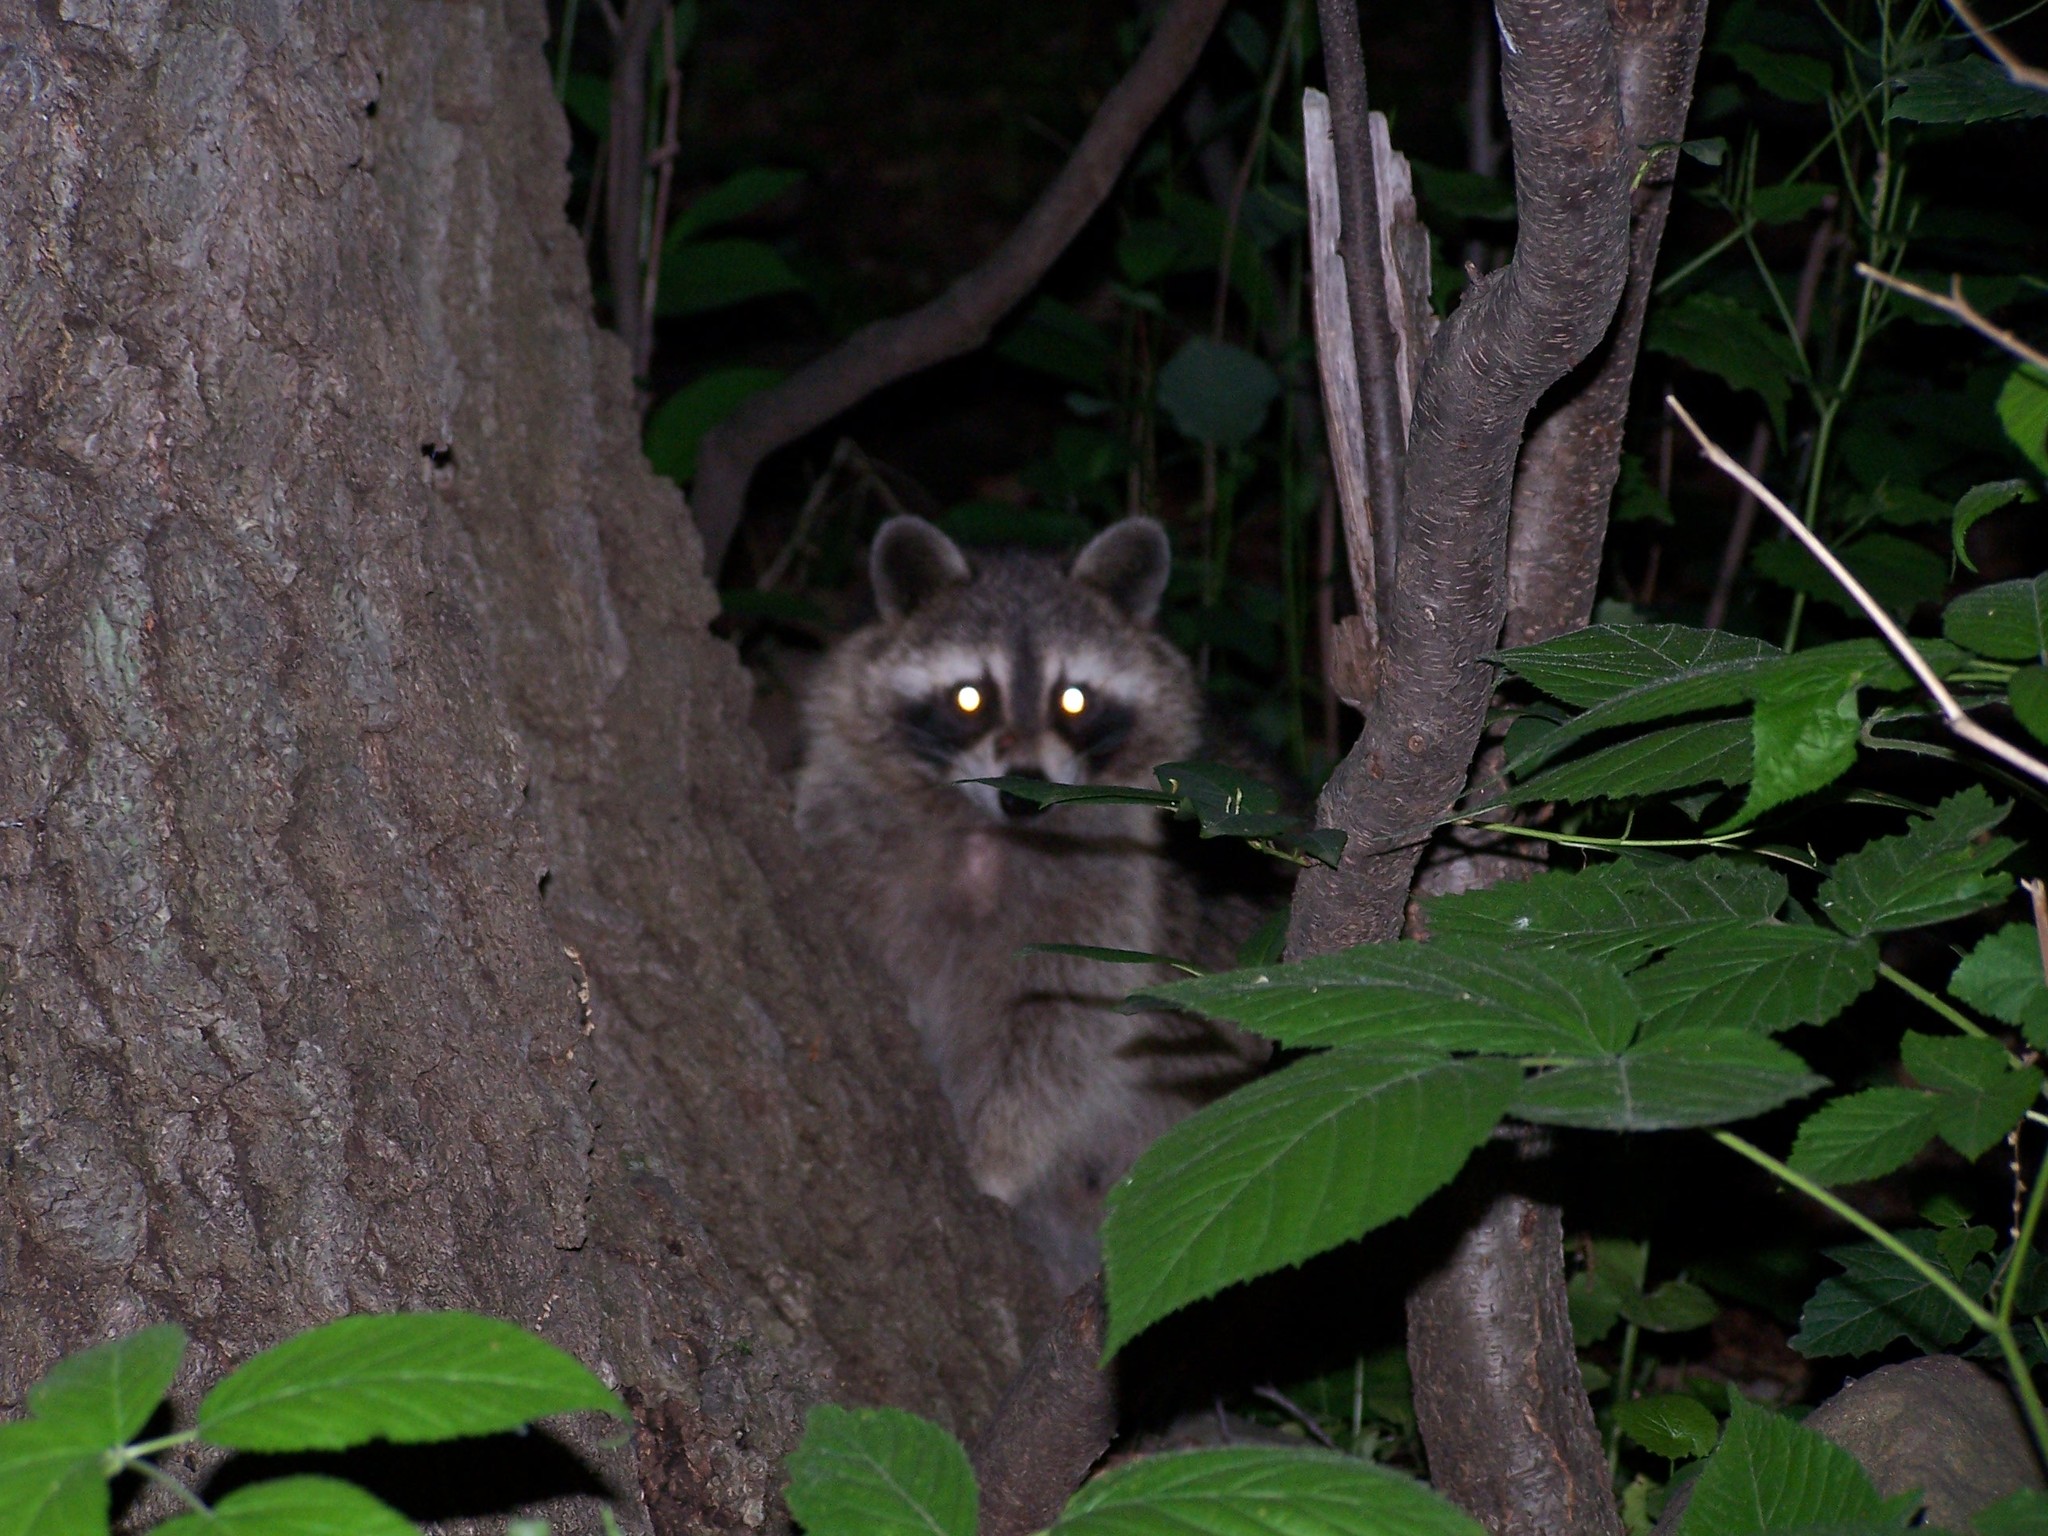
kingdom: Animalia
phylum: Chordata
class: Mammalia
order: Carnivora
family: Procyonidae
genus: Procyon
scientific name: Procyon lotor
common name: Raccoon
